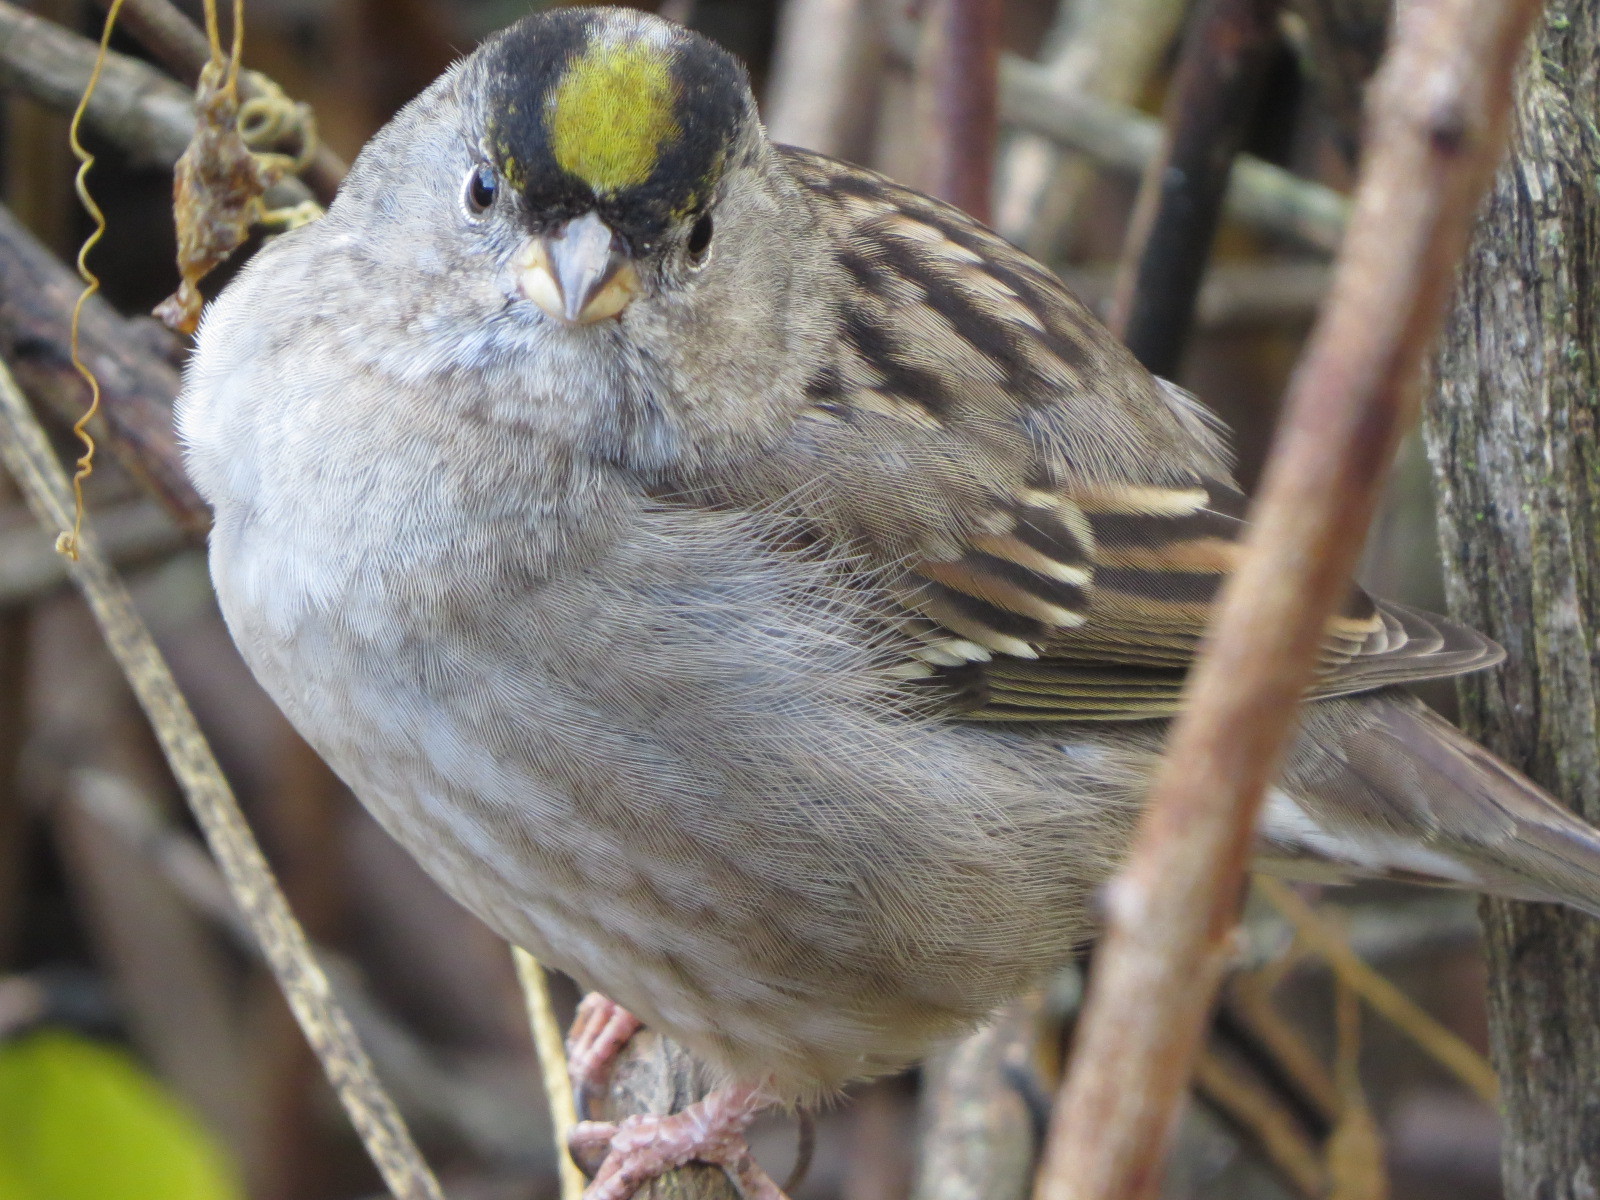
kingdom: Animalia
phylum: Chordata
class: Aves
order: Passeriformes
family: Passerellidae
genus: Zonotrichia
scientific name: Zonotrichia atricapilla
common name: Golden-crowned sparrow
